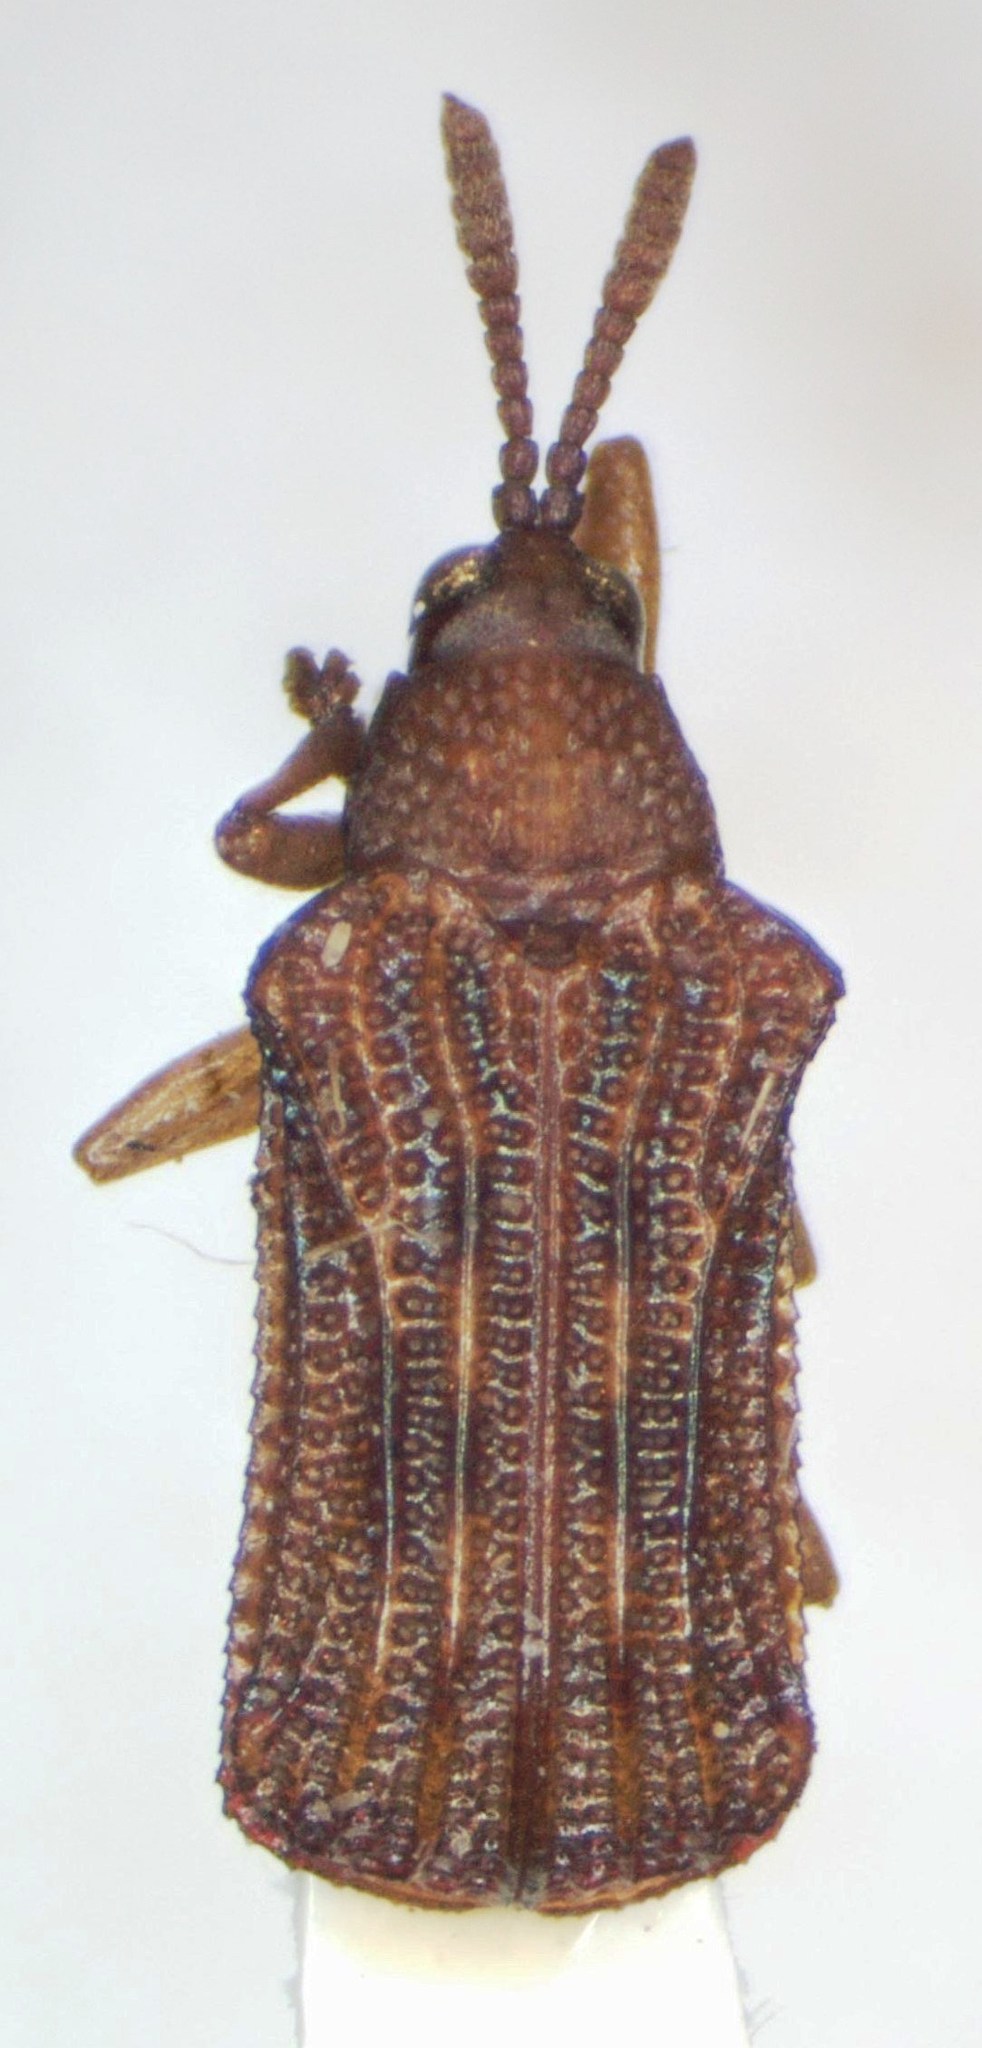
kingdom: Animalia
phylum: Arthropoda
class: Insecta
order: Coleoptera
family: Chrysomelidae
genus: Baliosus
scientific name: Baliosus marmoratus
